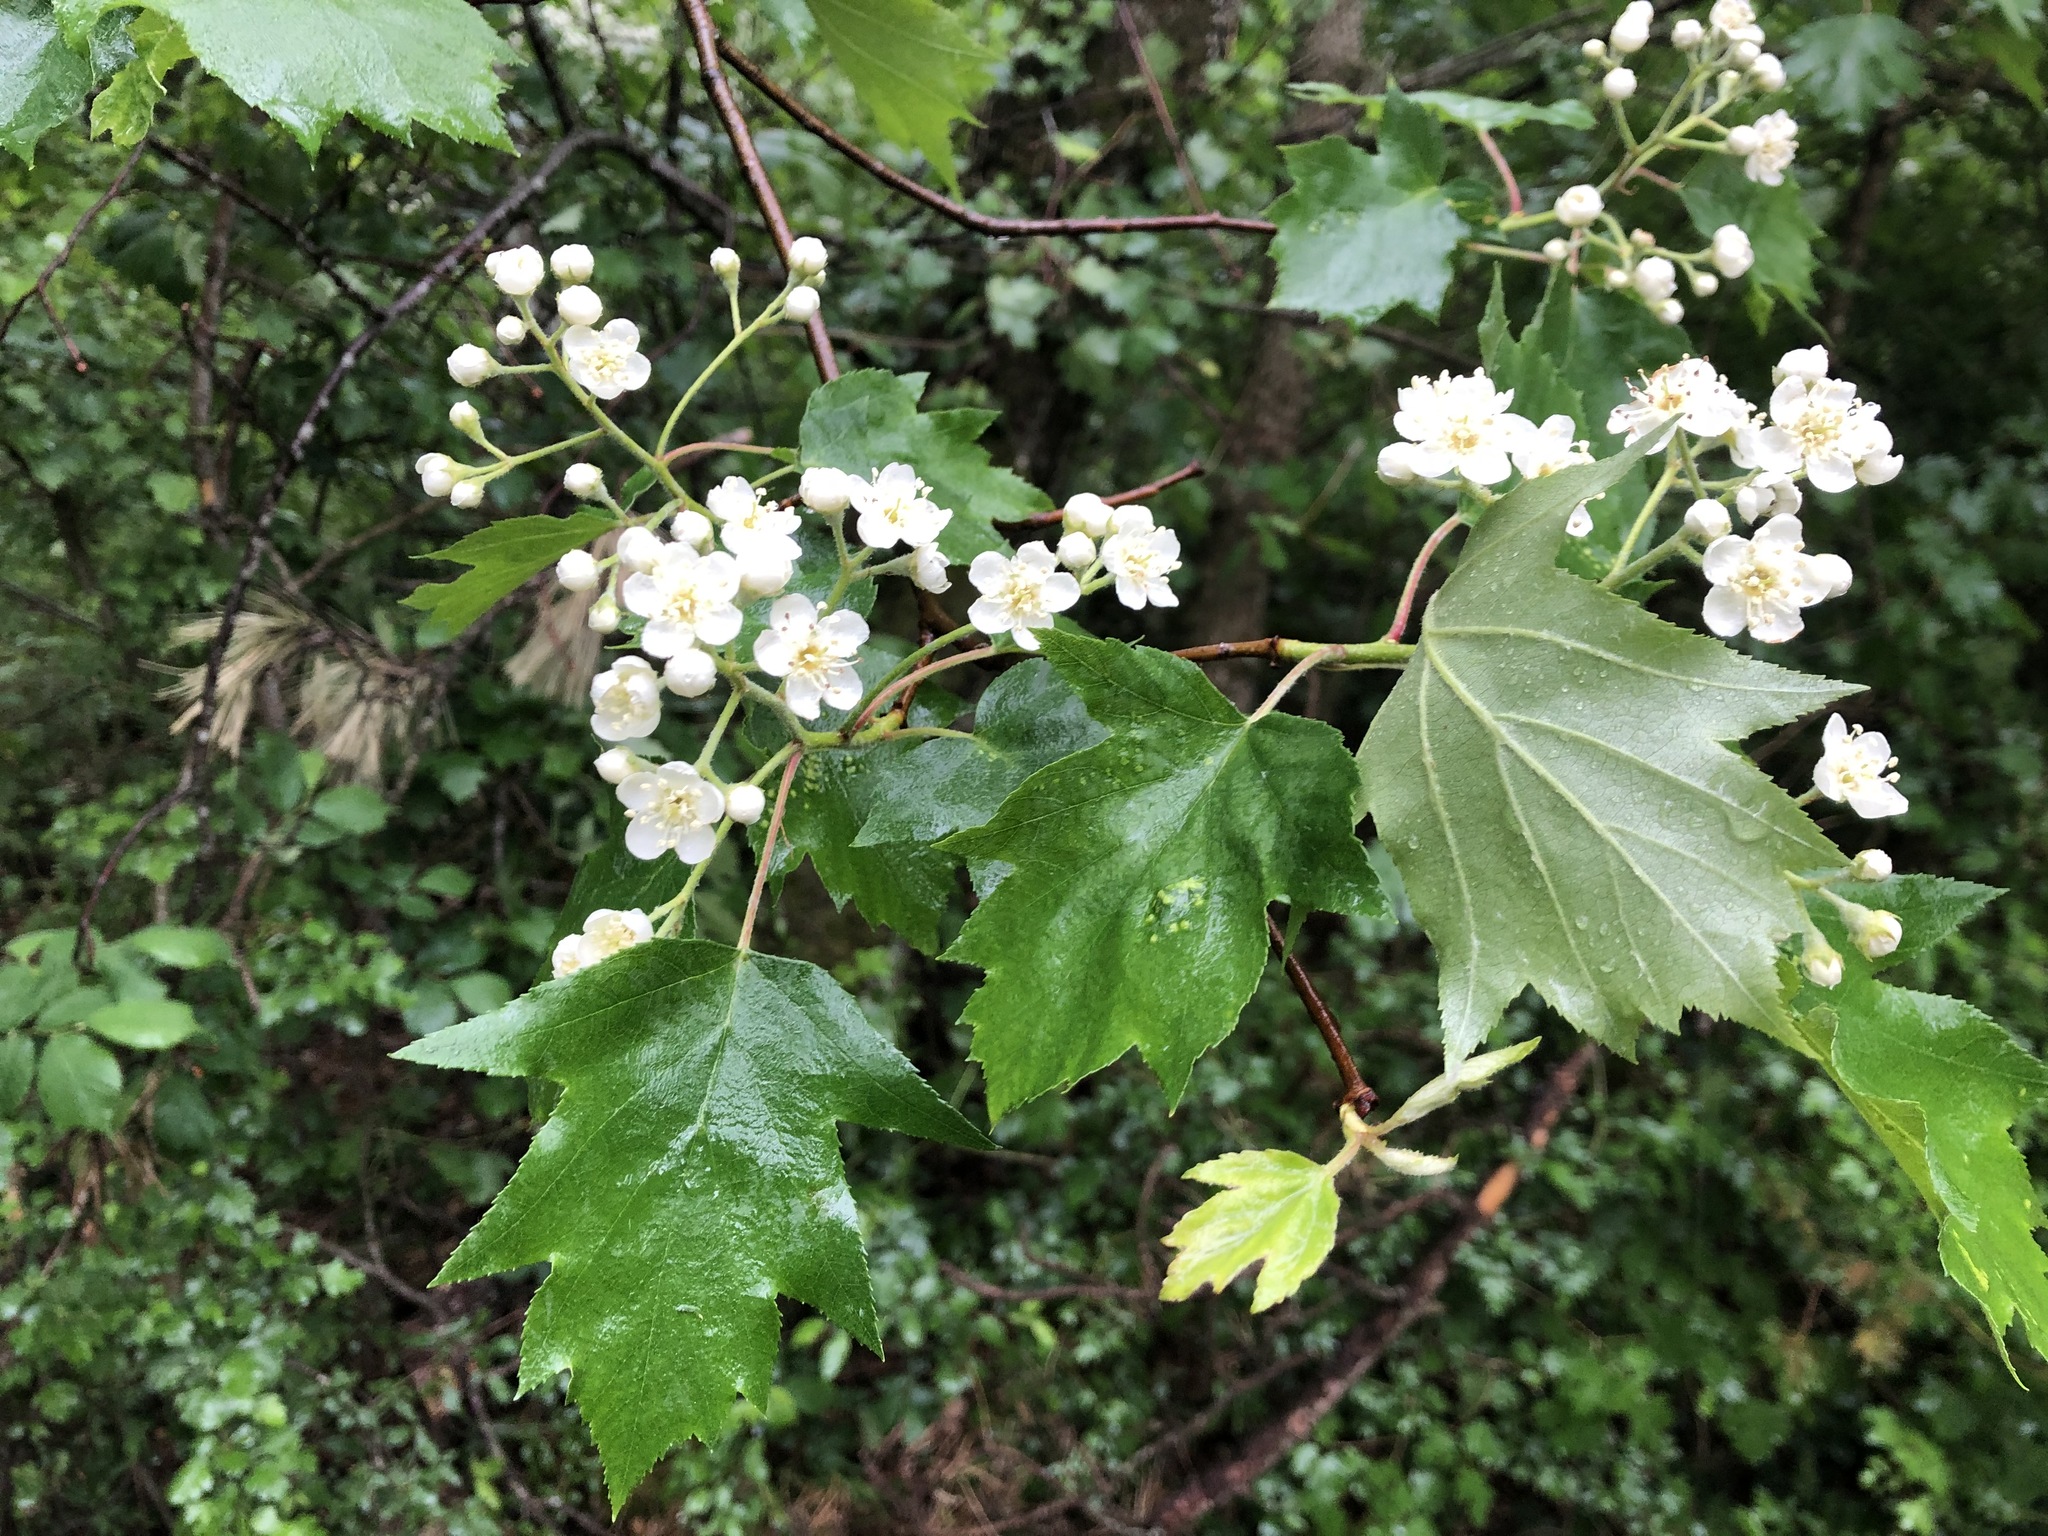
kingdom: Plantae
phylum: Tracheophyta
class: Magnoliopsida
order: Rosales
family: Rosaceae
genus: Torminalis
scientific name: Torminalis glaberrima
